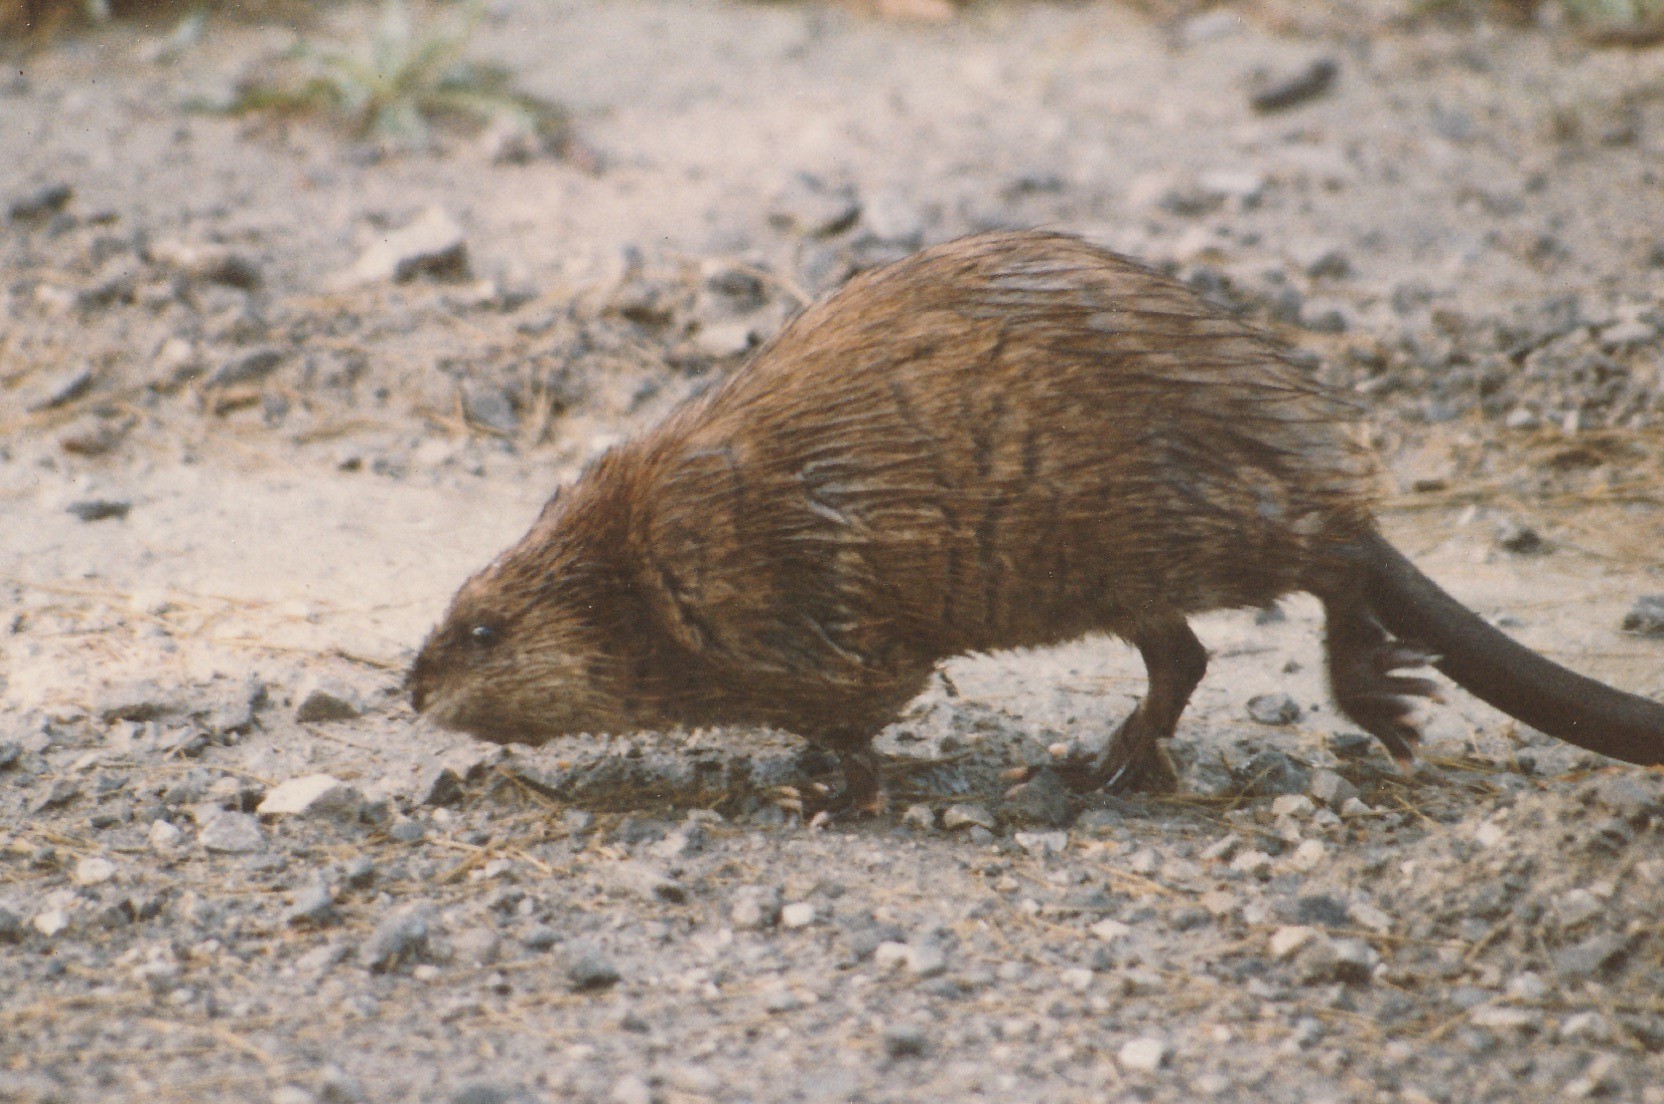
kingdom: Animalia
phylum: Chordata
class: Mammalia
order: Rodentia
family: Cricetidae
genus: Ondatra
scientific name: Ondatra zibethicus
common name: Muskrat
